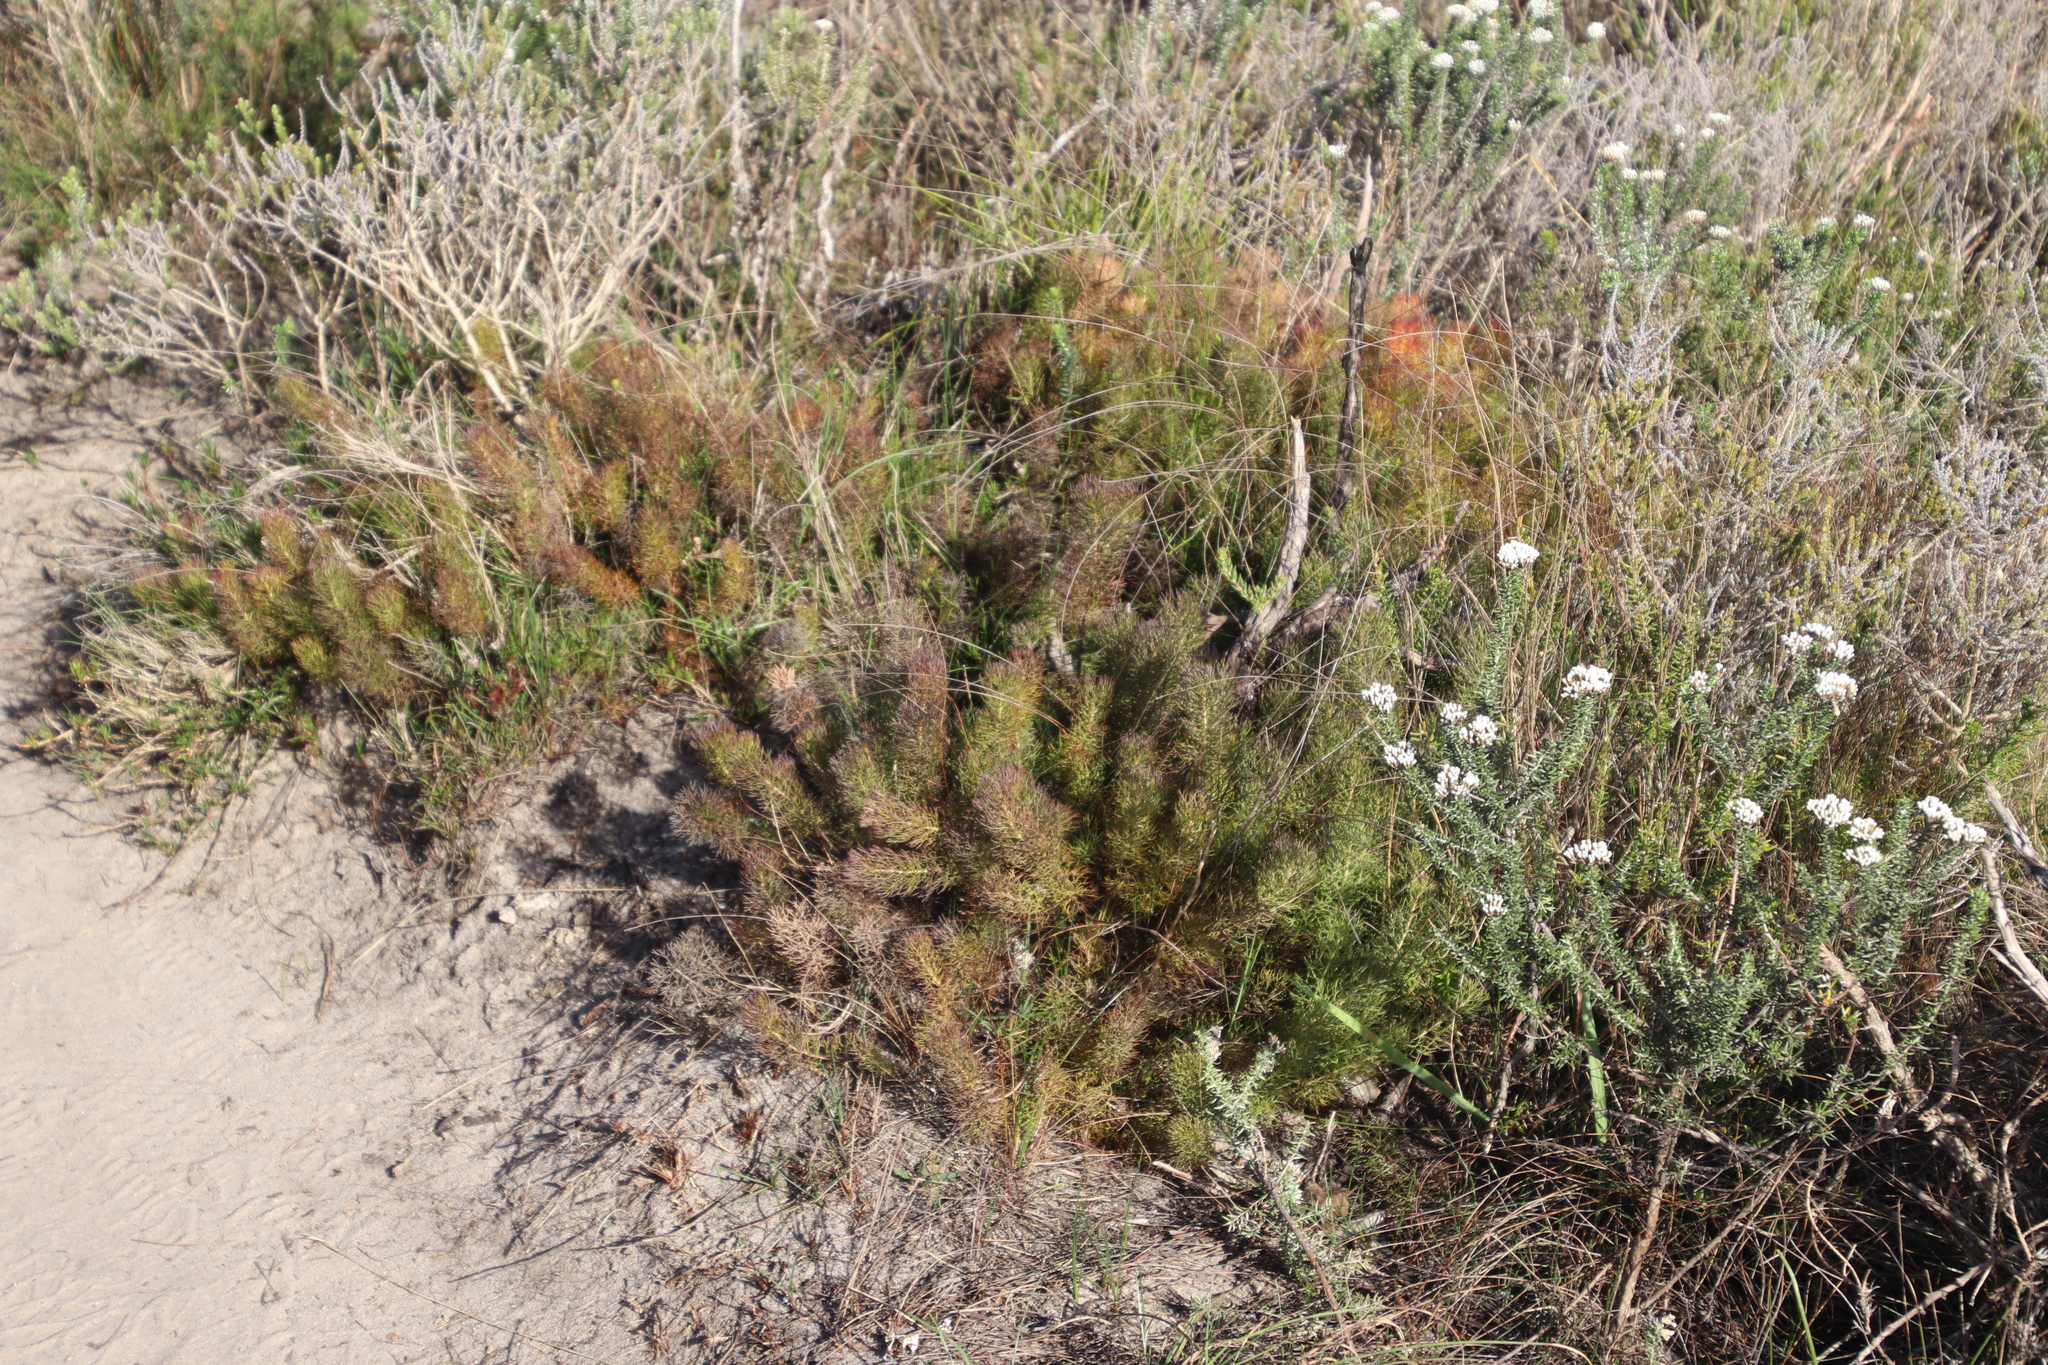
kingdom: Plantae
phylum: Tracheophyta
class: Magnoliopsida
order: Proteales
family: Proteaceae
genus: Serruria
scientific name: Serruria cyanoides
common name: Wynberg spiderhead
